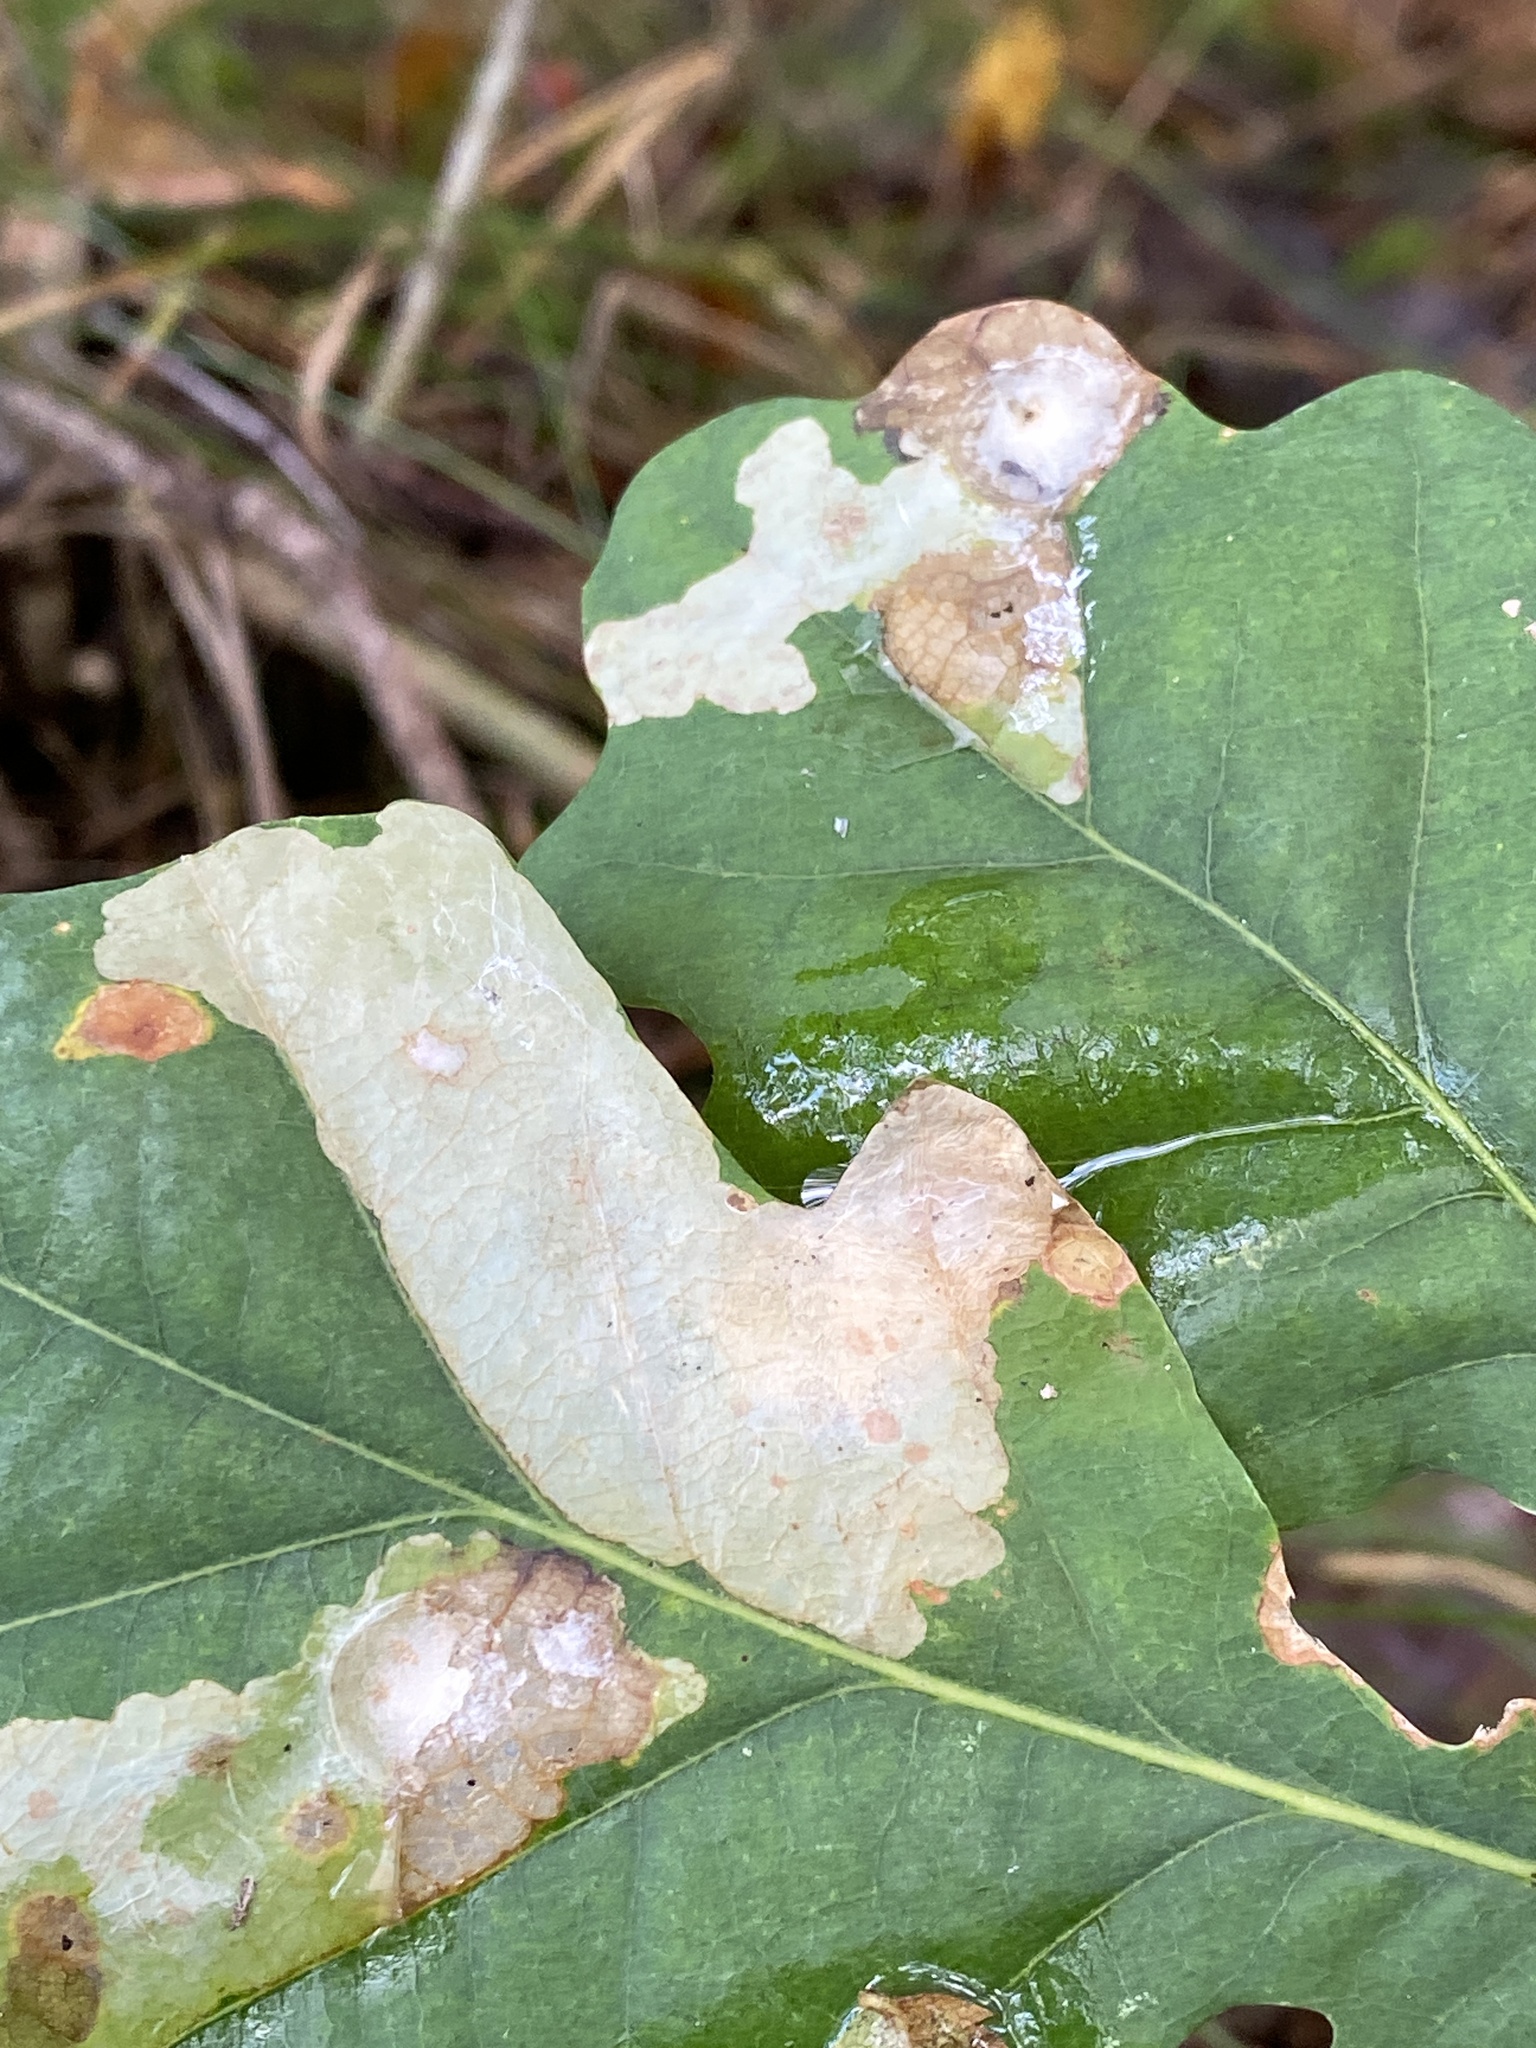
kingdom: Animalia
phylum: Arthropoda
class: Insecta
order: Lepidoptera
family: Tischeriidae
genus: Tischeria
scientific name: Tischeria ekebladella
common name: Oak carl
